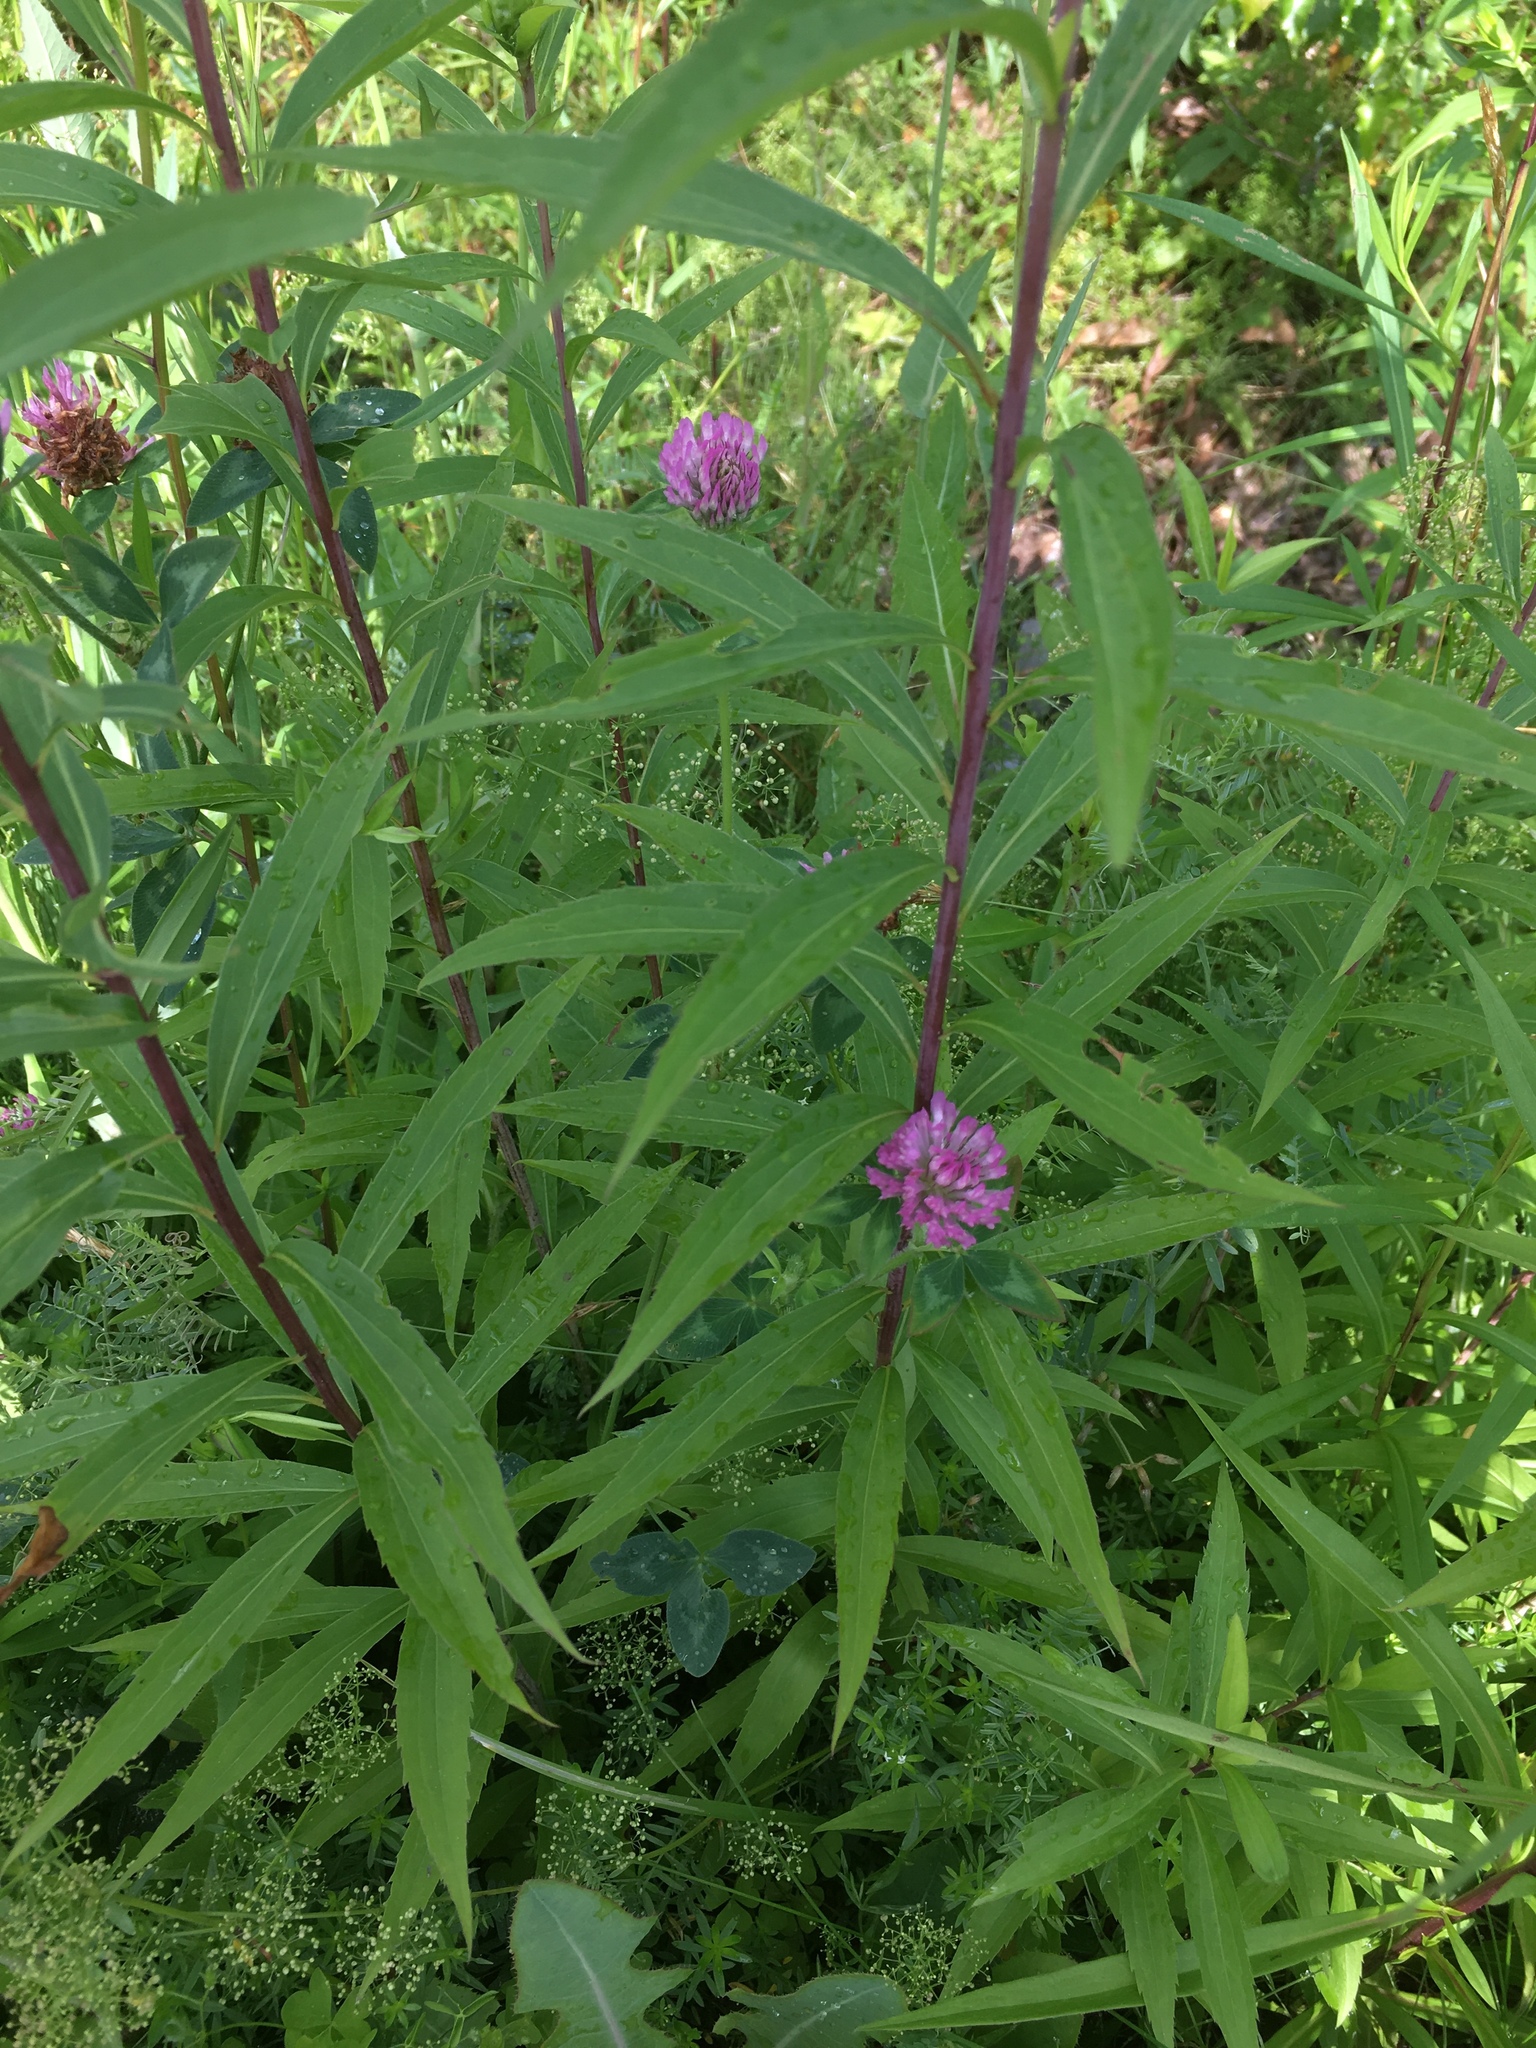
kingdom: Plantae
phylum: Tracheophyta
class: Magnoliopsida
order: Fabales
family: Fabaceae
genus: Trifolium
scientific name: Trifolium pratense
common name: Red clover
